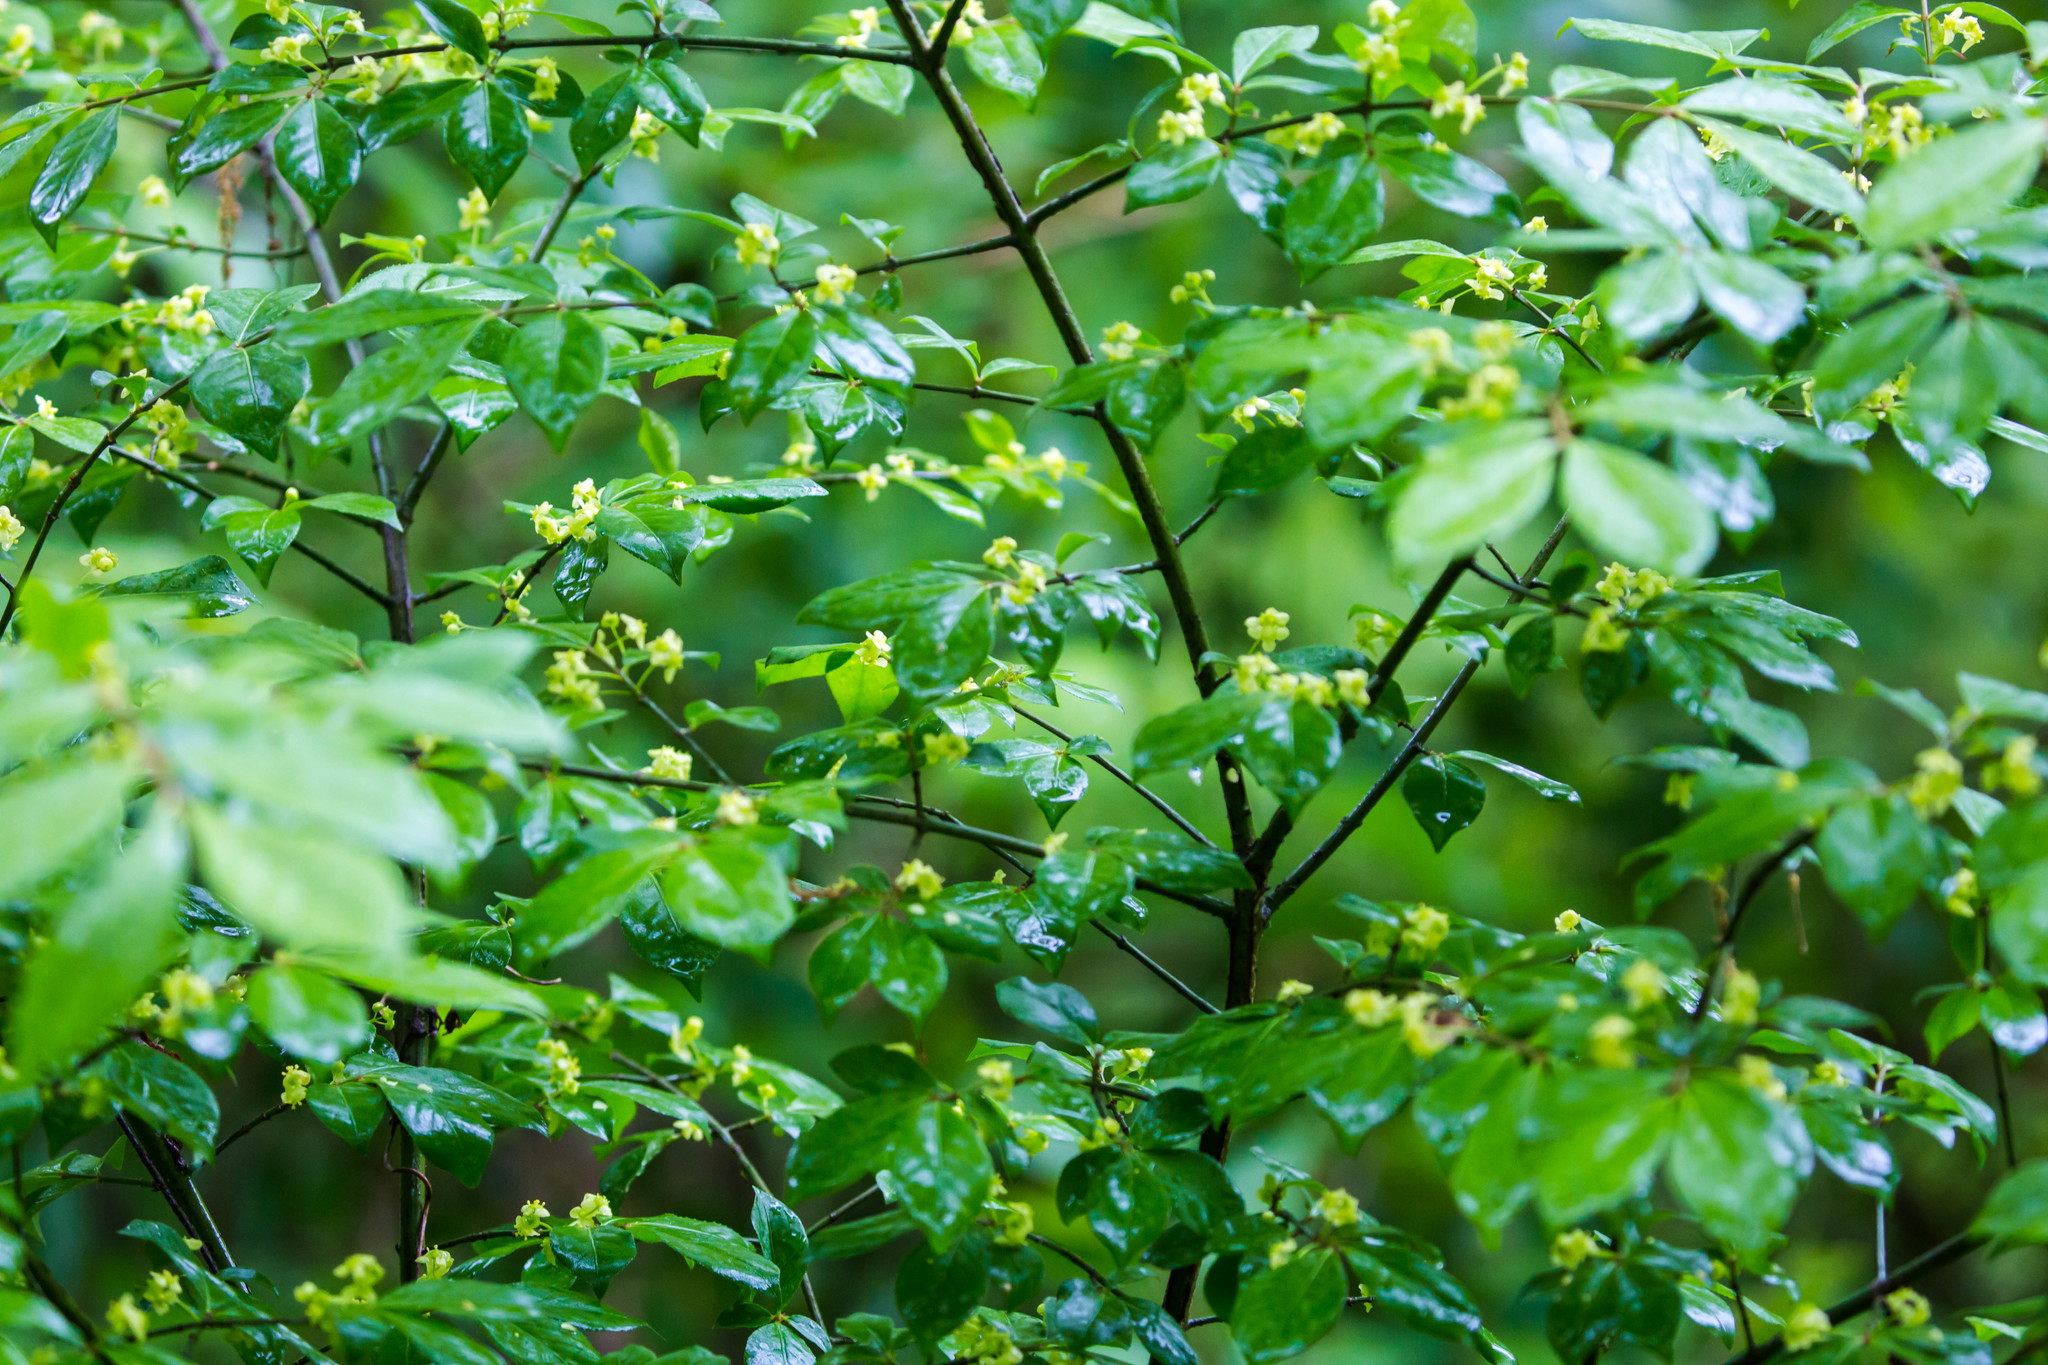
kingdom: Plantae
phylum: Tracheophyta
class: Magnoliopsida
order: Celastrales
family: Celastraceae
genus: Euonymus
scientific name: Euonymus alatus
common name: Winged euonymus
